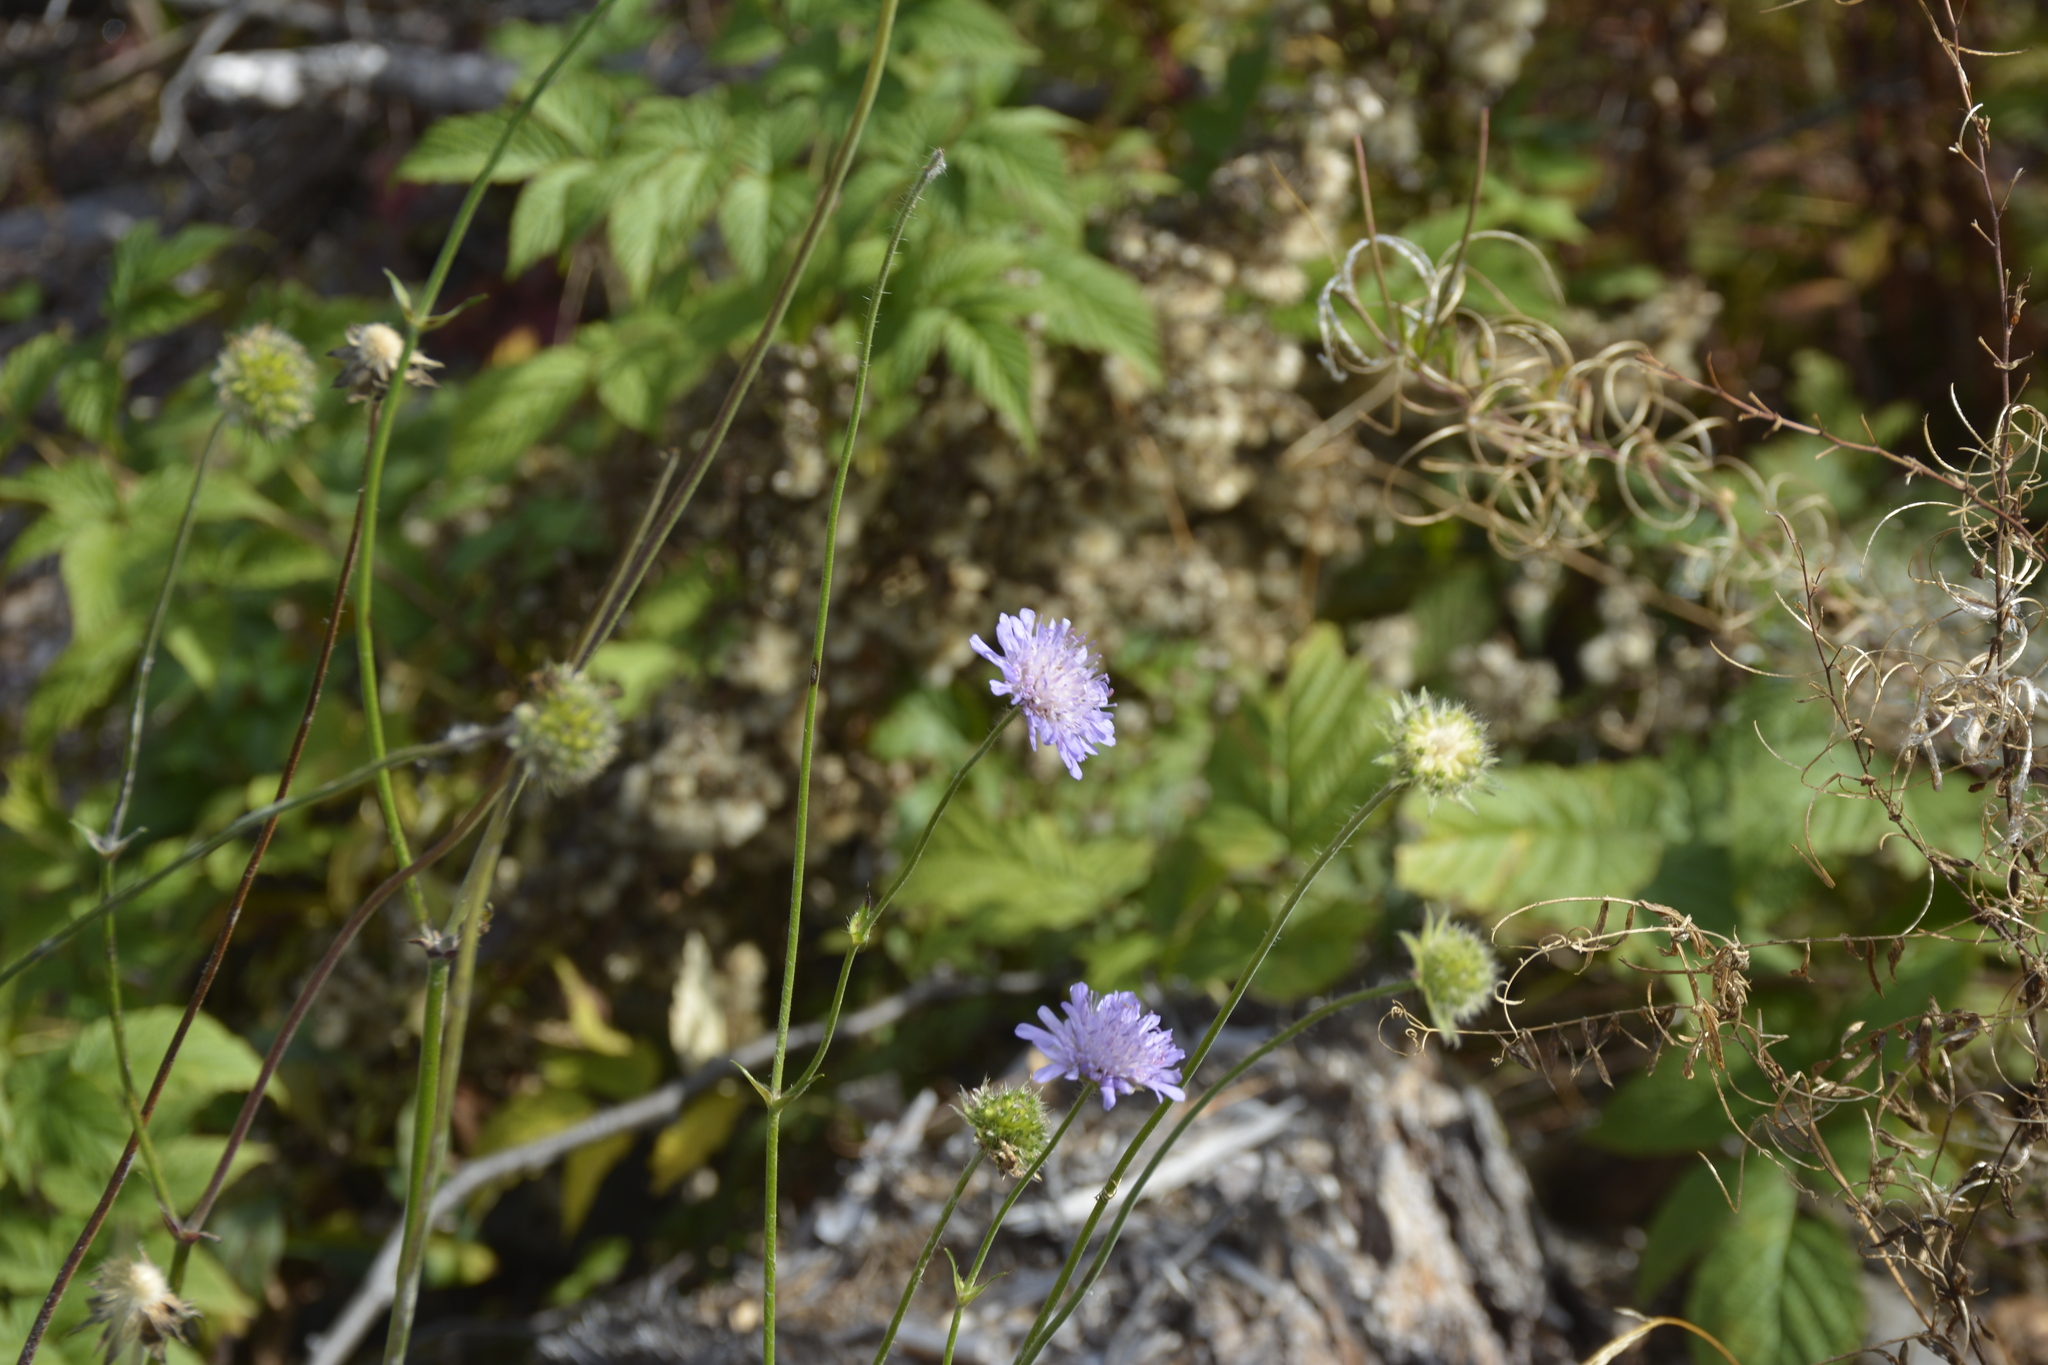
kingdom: Plantae
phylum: Tracheophyta
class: Magnoliopsida
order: Dipsacales
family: Caprifoliaceae
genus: Knautia
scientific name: Knautia arvensis
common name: Field scabiosa
